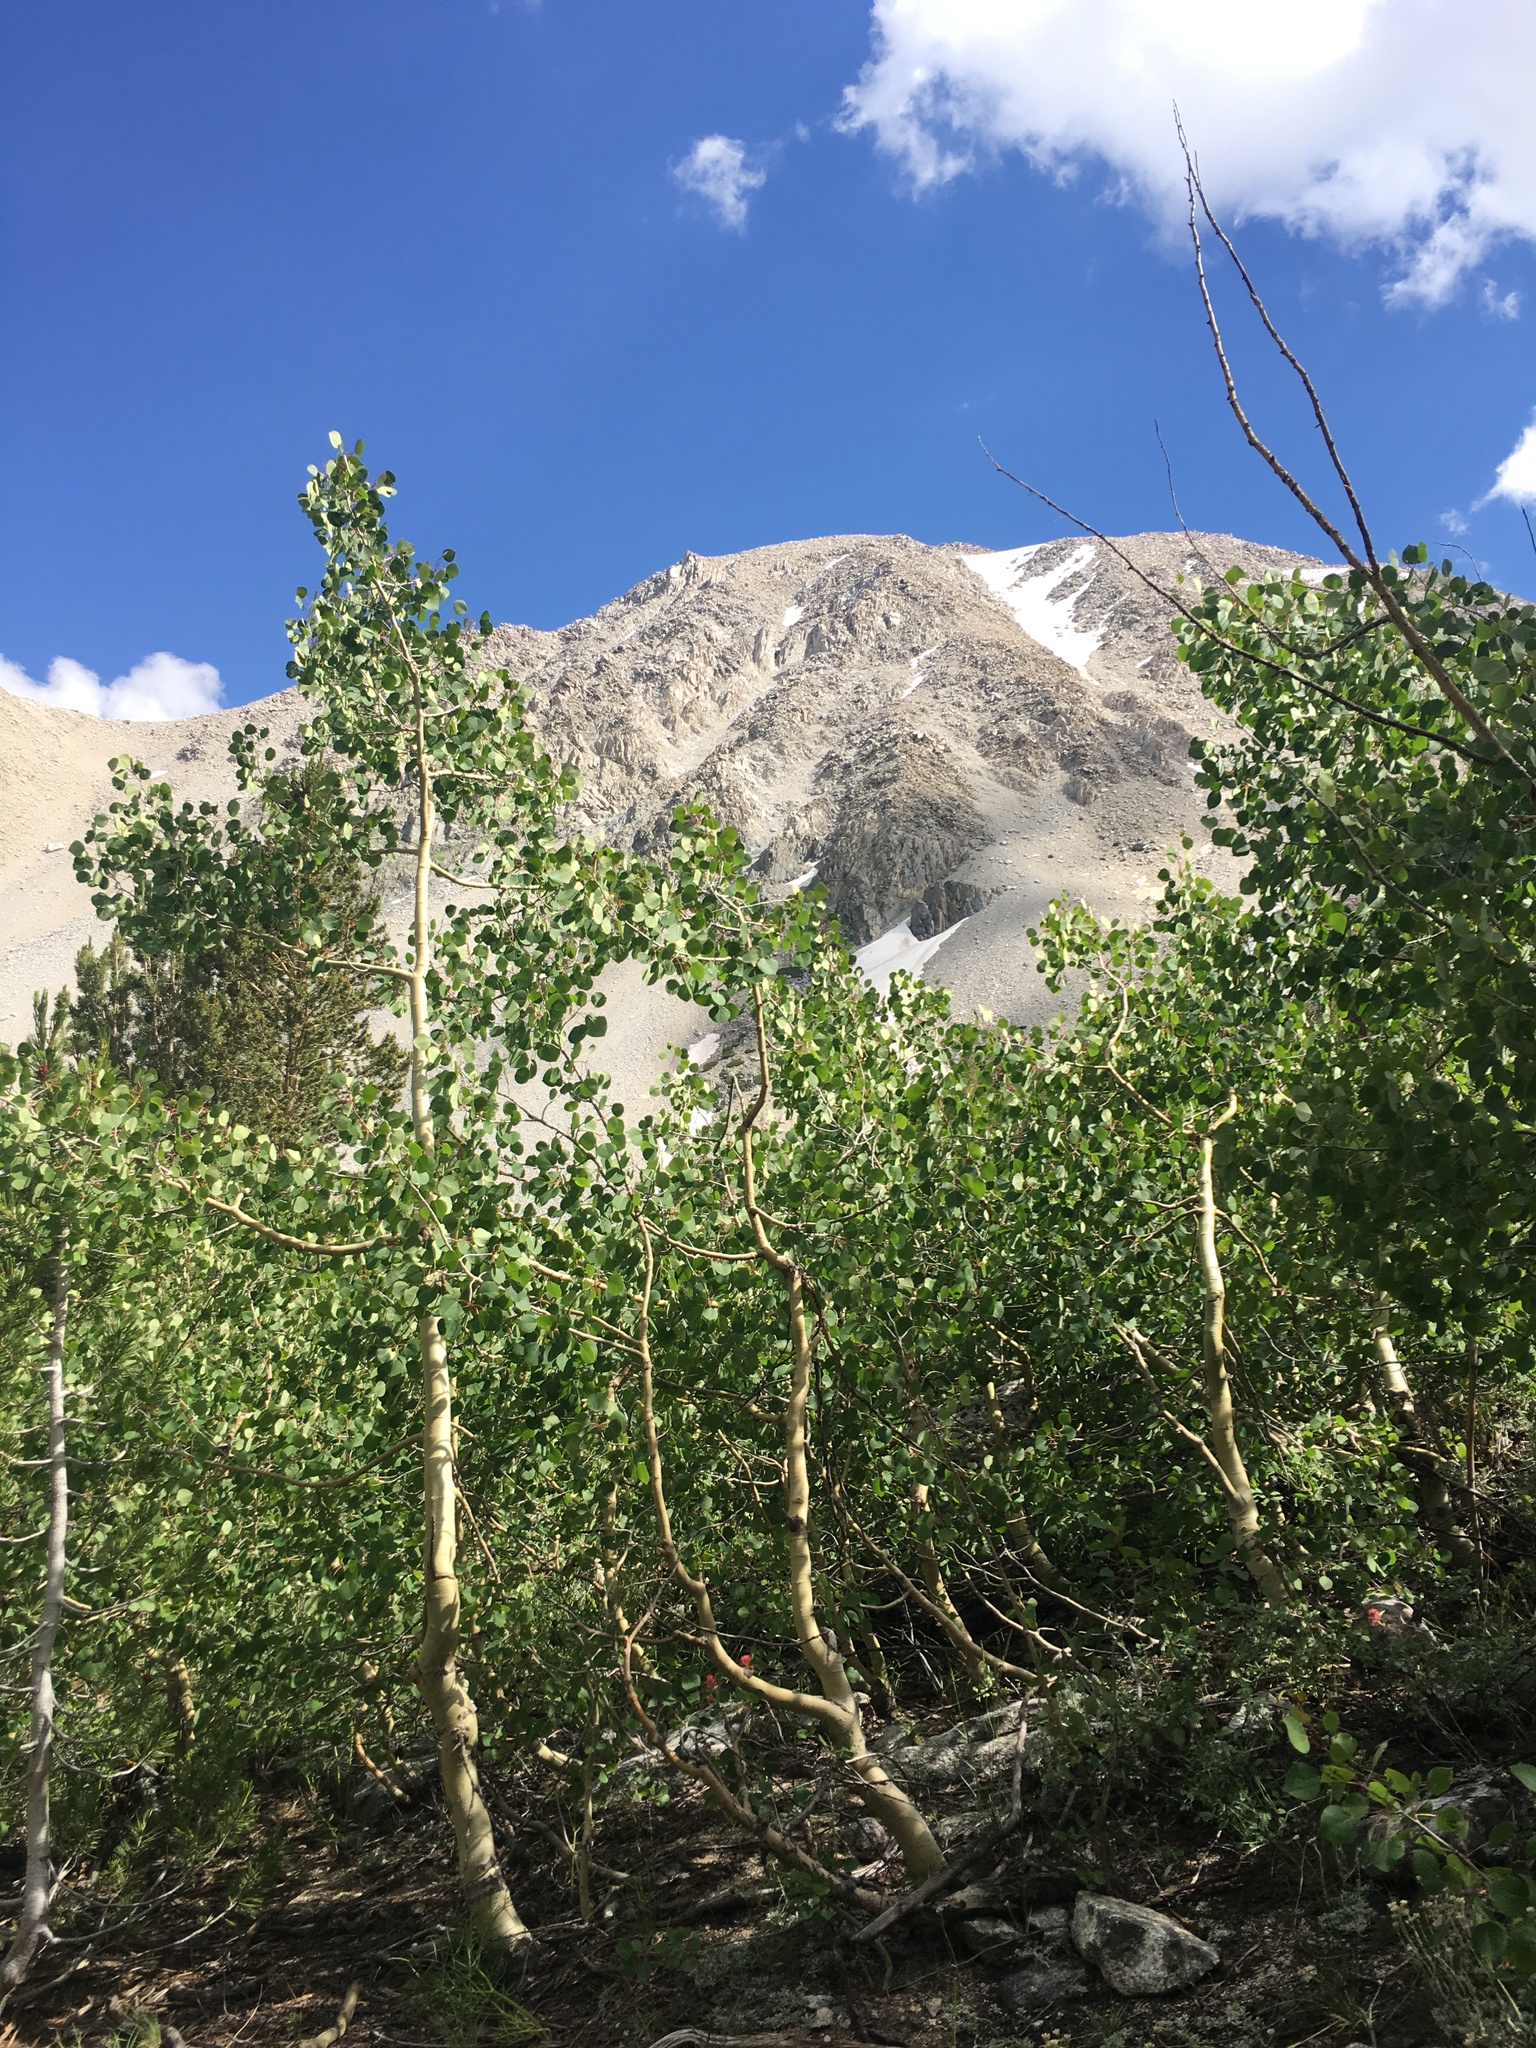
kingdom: Plantae
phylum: Tracheophyta
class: Magnoliopsida
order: Malpighiales
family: Salicaceae
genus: Populus
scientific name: Populus tremuloides
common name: Quaking aspen
